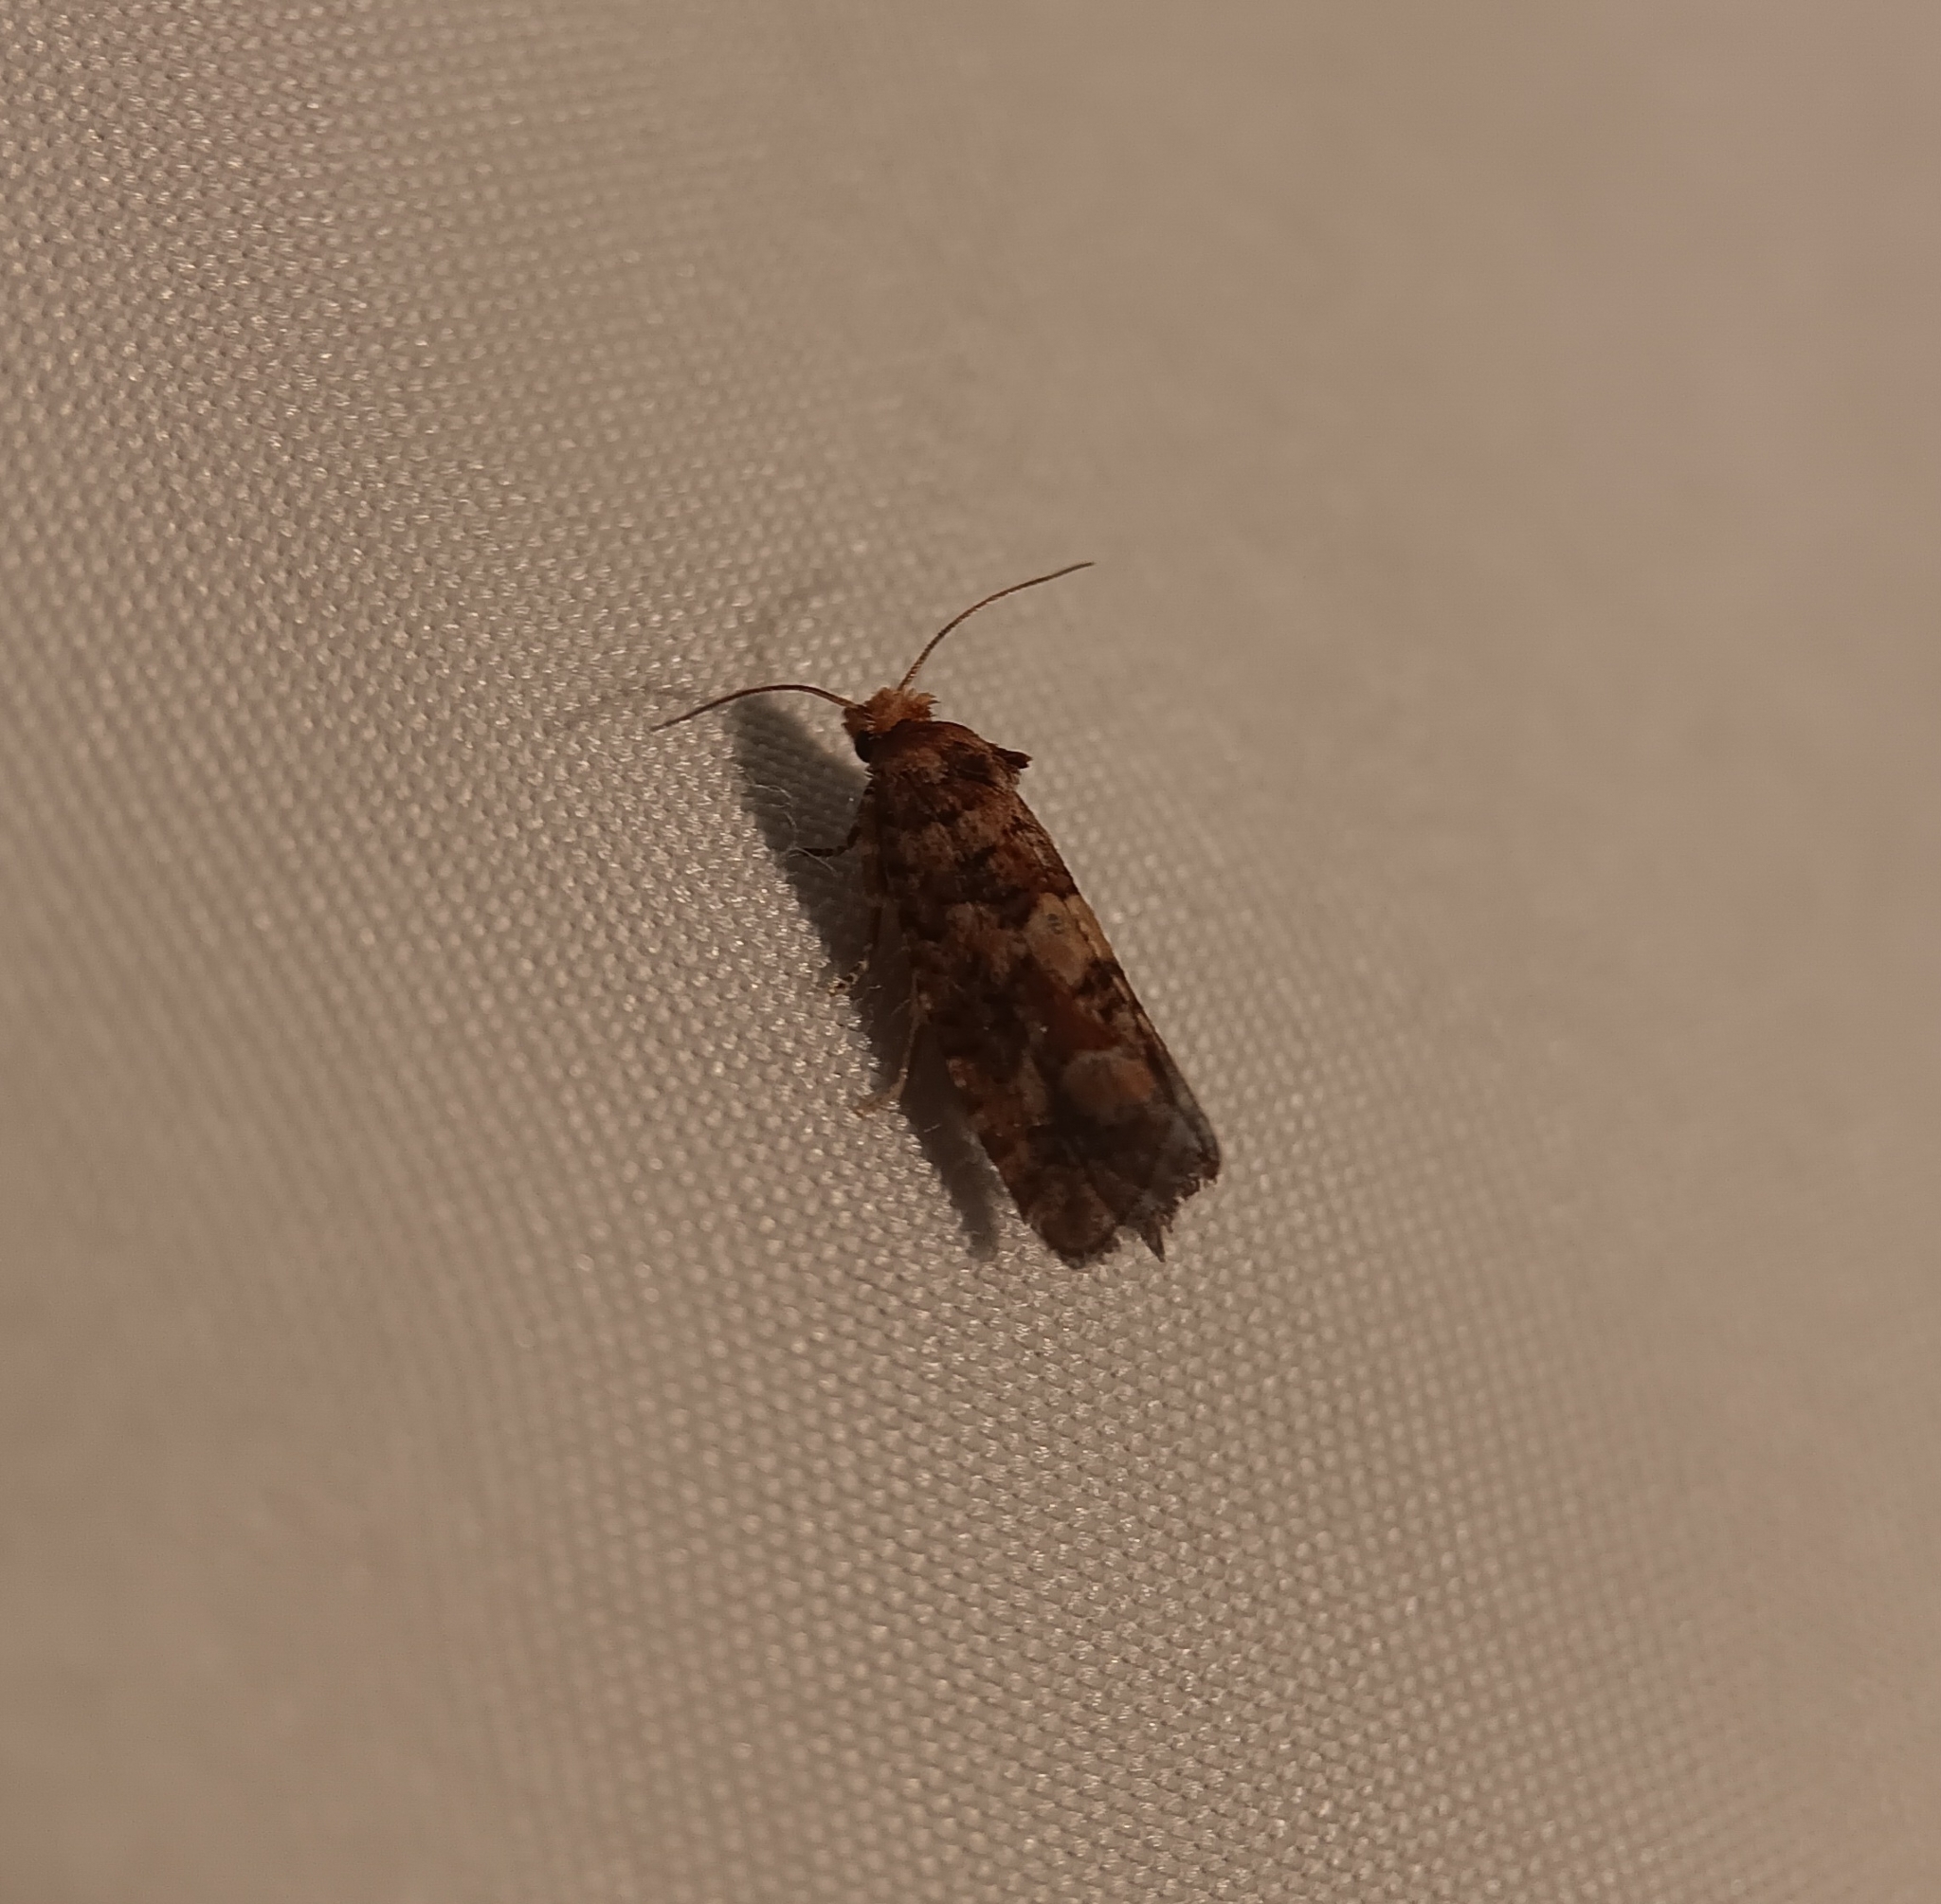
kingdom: Animalia
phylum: Arthropoda
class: Insecta
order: Lepidoptera
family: Tortricidae
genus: Eucopina
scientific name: Eucopina tocullionana
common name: White pinecone borer moth
